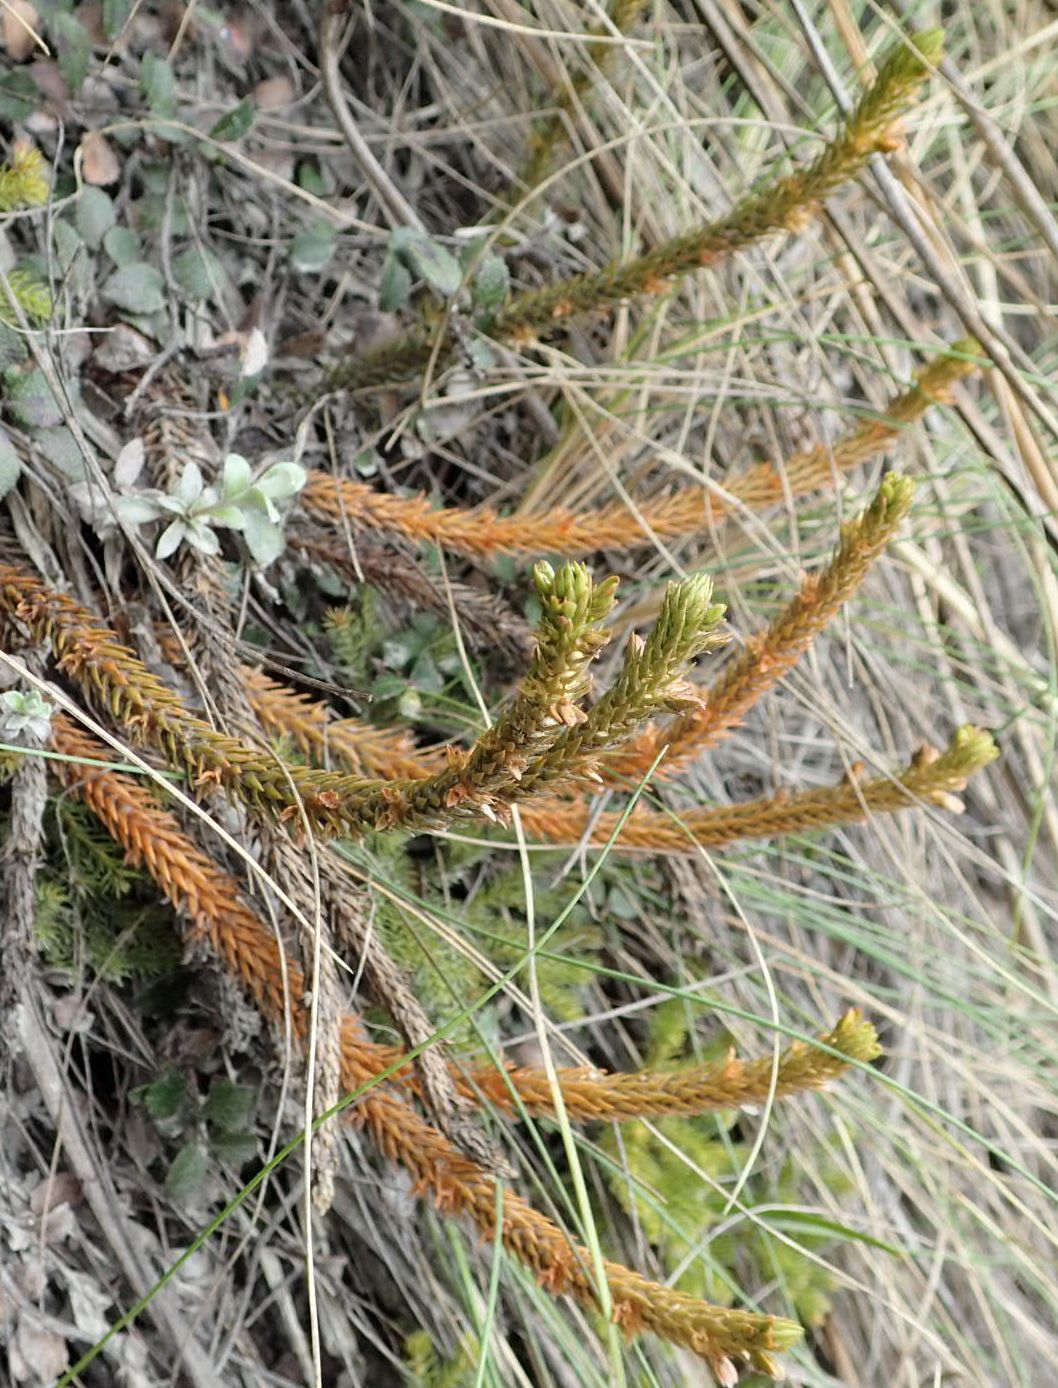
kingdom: Plantae
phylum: Tracheophyta
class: Lycopodiopsida
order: Lycopodiales
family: Lycopodiaceae
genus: Huperzia
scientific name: Huperzia australiana
